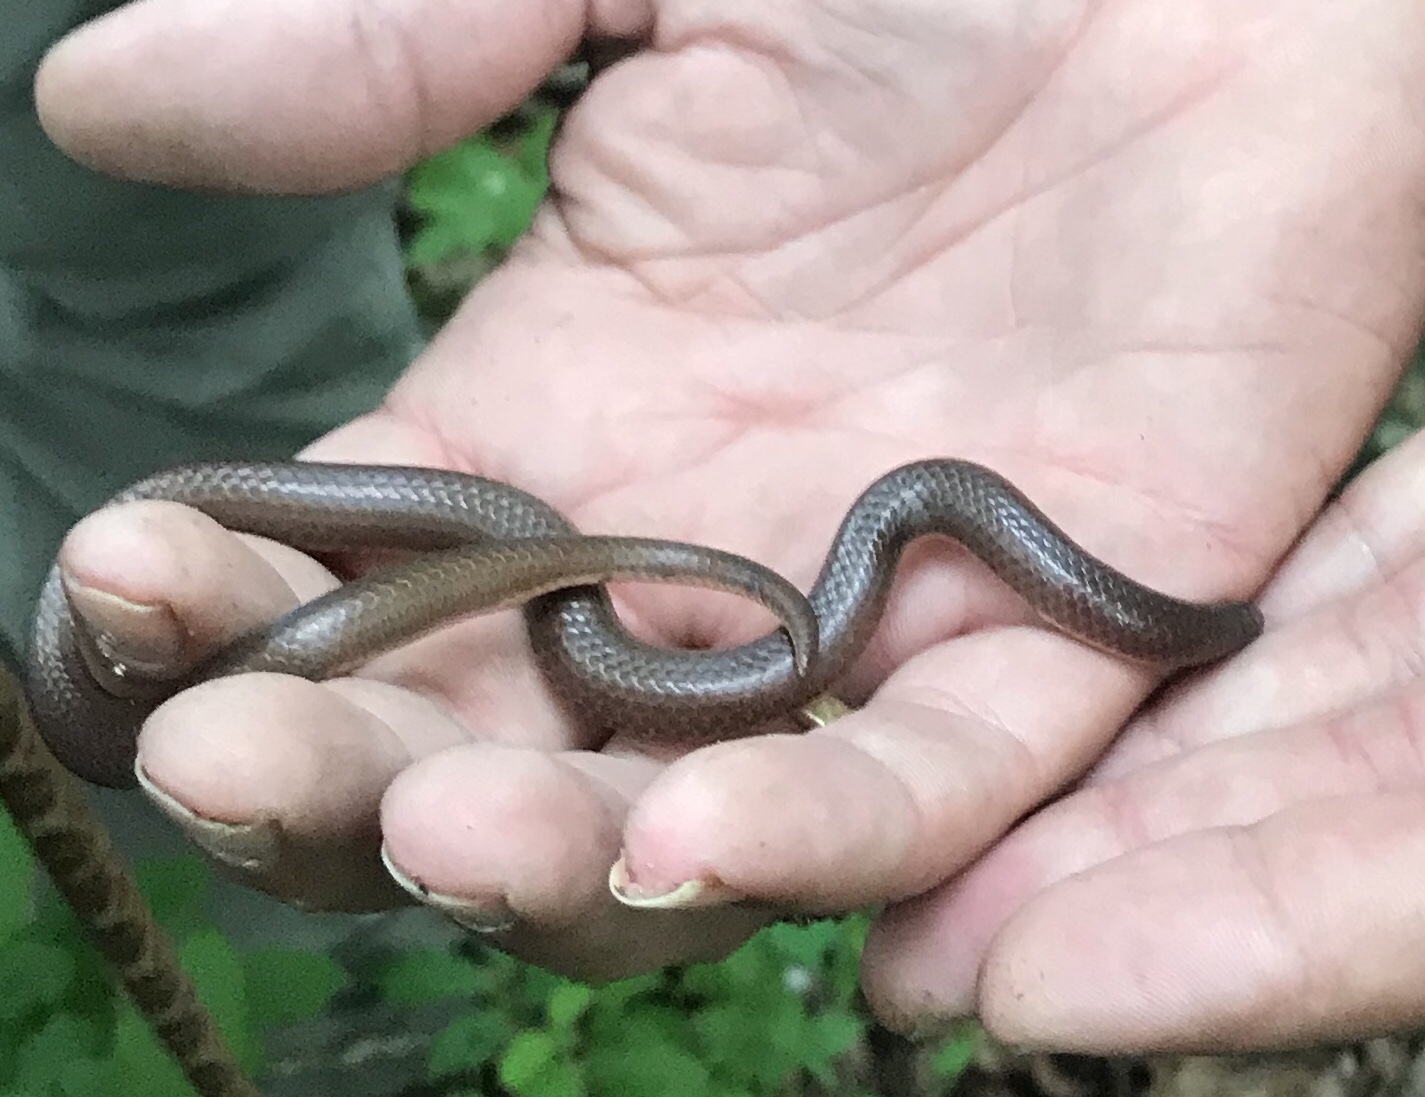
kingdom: Animalia
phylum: Chordata
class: Squamata
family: Colubridae
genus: Carphophis
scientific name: Carphophis amoenus
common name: Eastern worm snake
